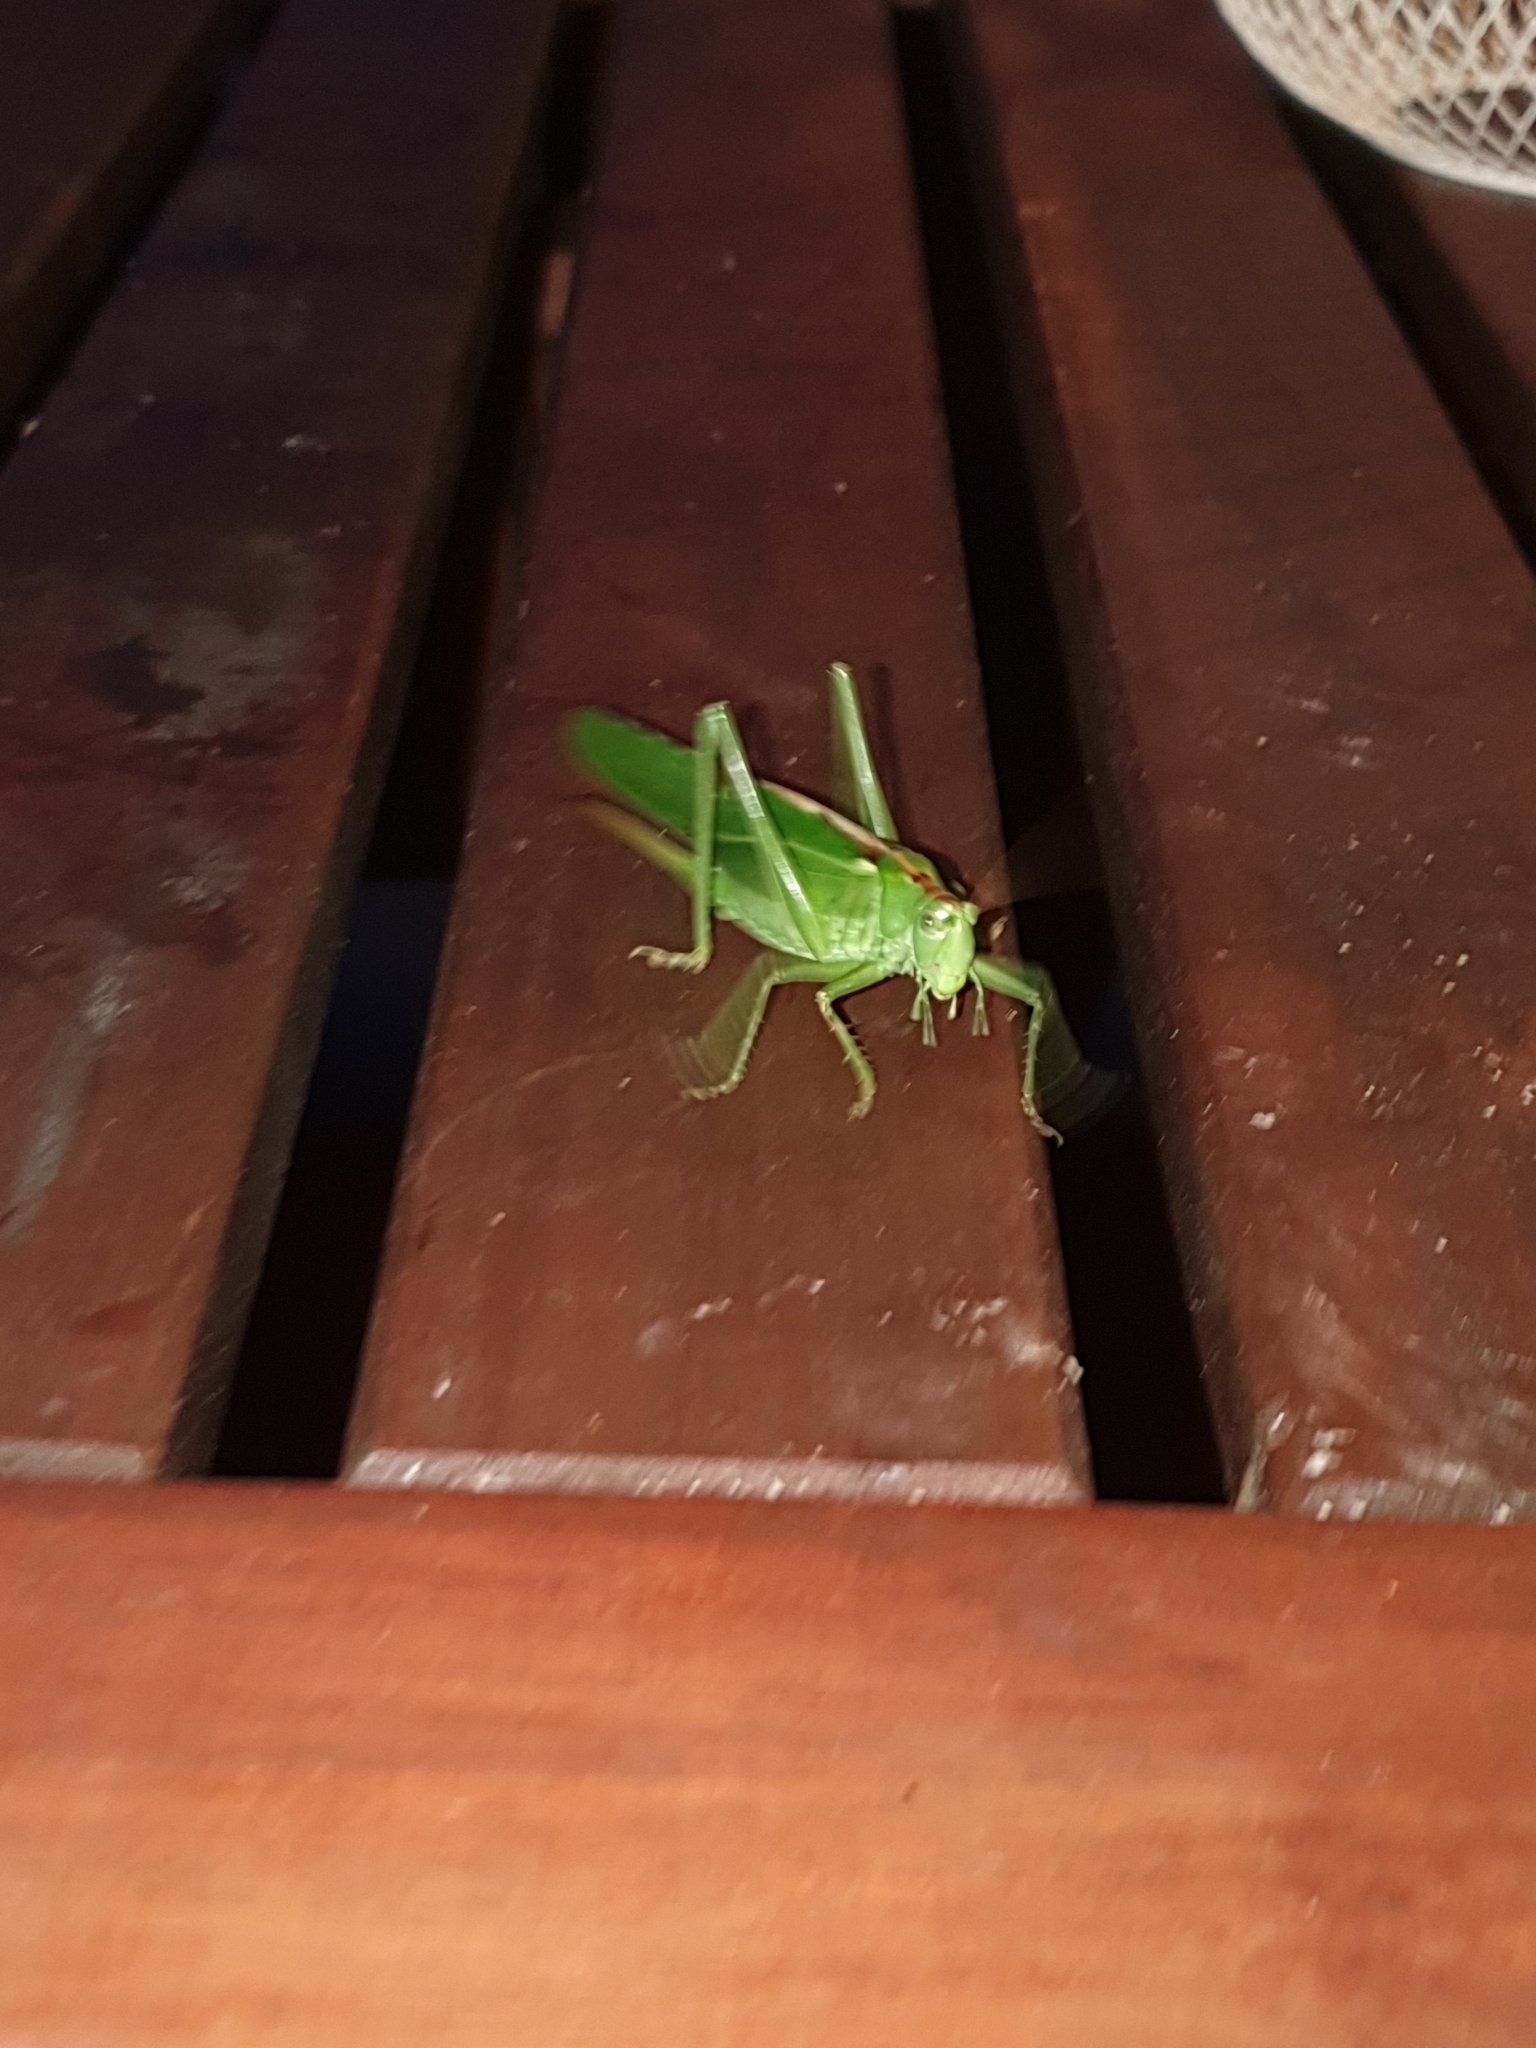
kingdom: Animalia
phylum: Arthropoda
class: Insecta
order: Orthoptera
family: Tettigoniidae
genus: Tettigonia
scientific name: Tettigonia viridissima
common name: Great green bush-cricket
